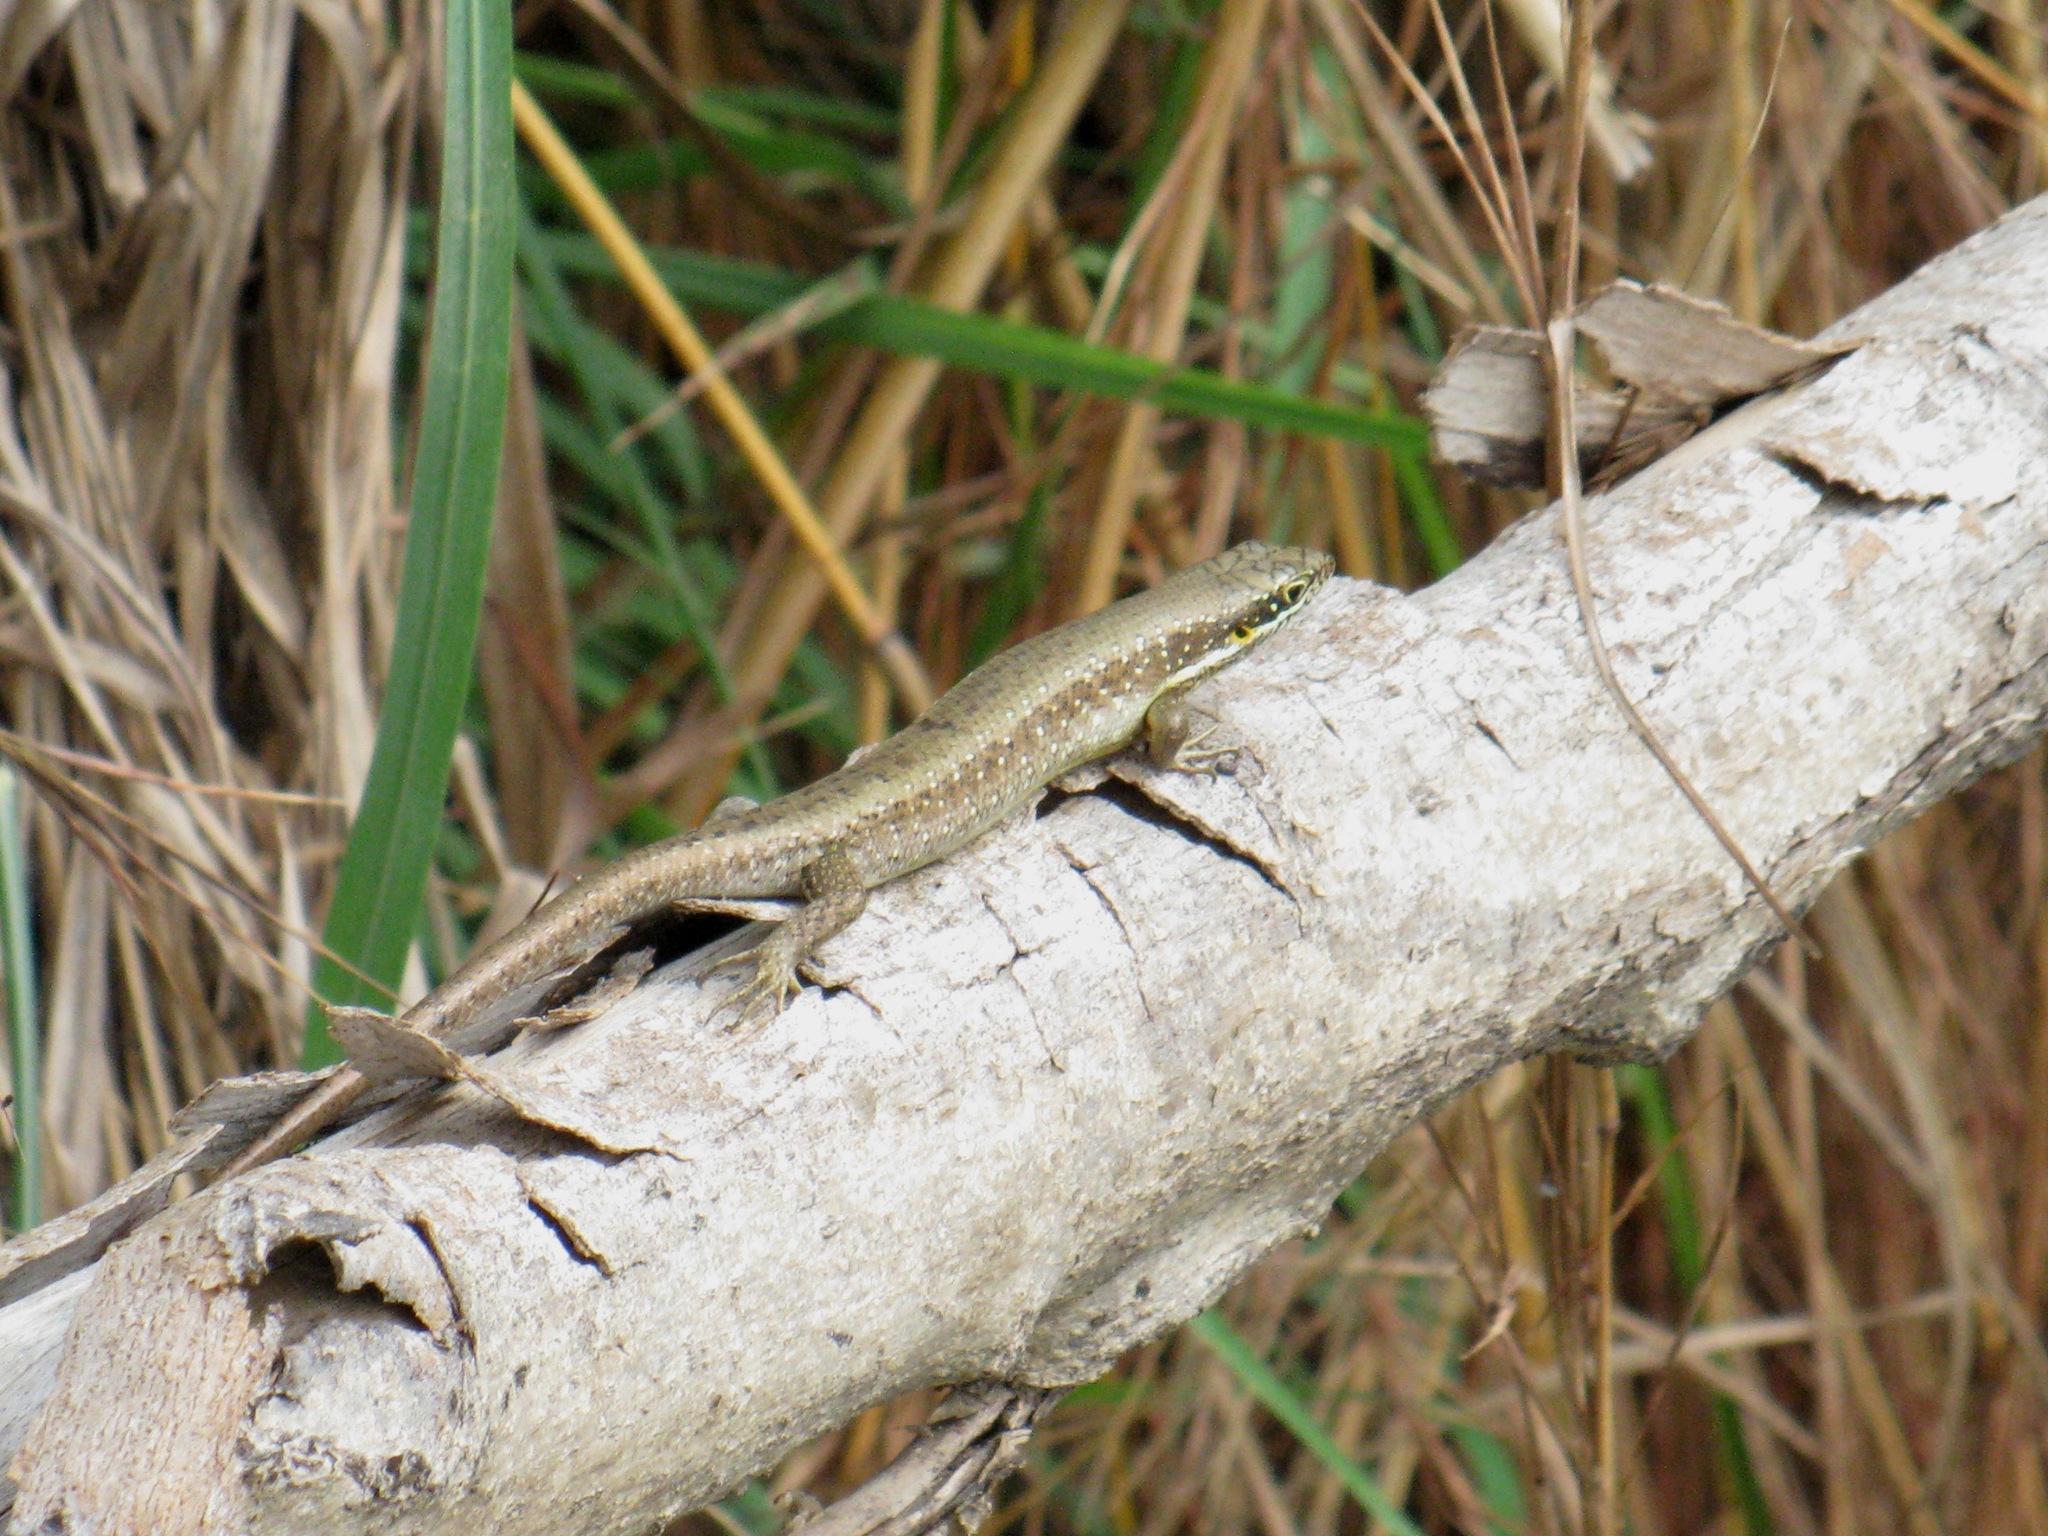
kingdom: Animalia
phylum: Chordata
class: Squamata
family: Scincidae
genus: Trachylepis
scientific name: Trachylepis maculilabris
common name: Speckle-lipped mabuya
